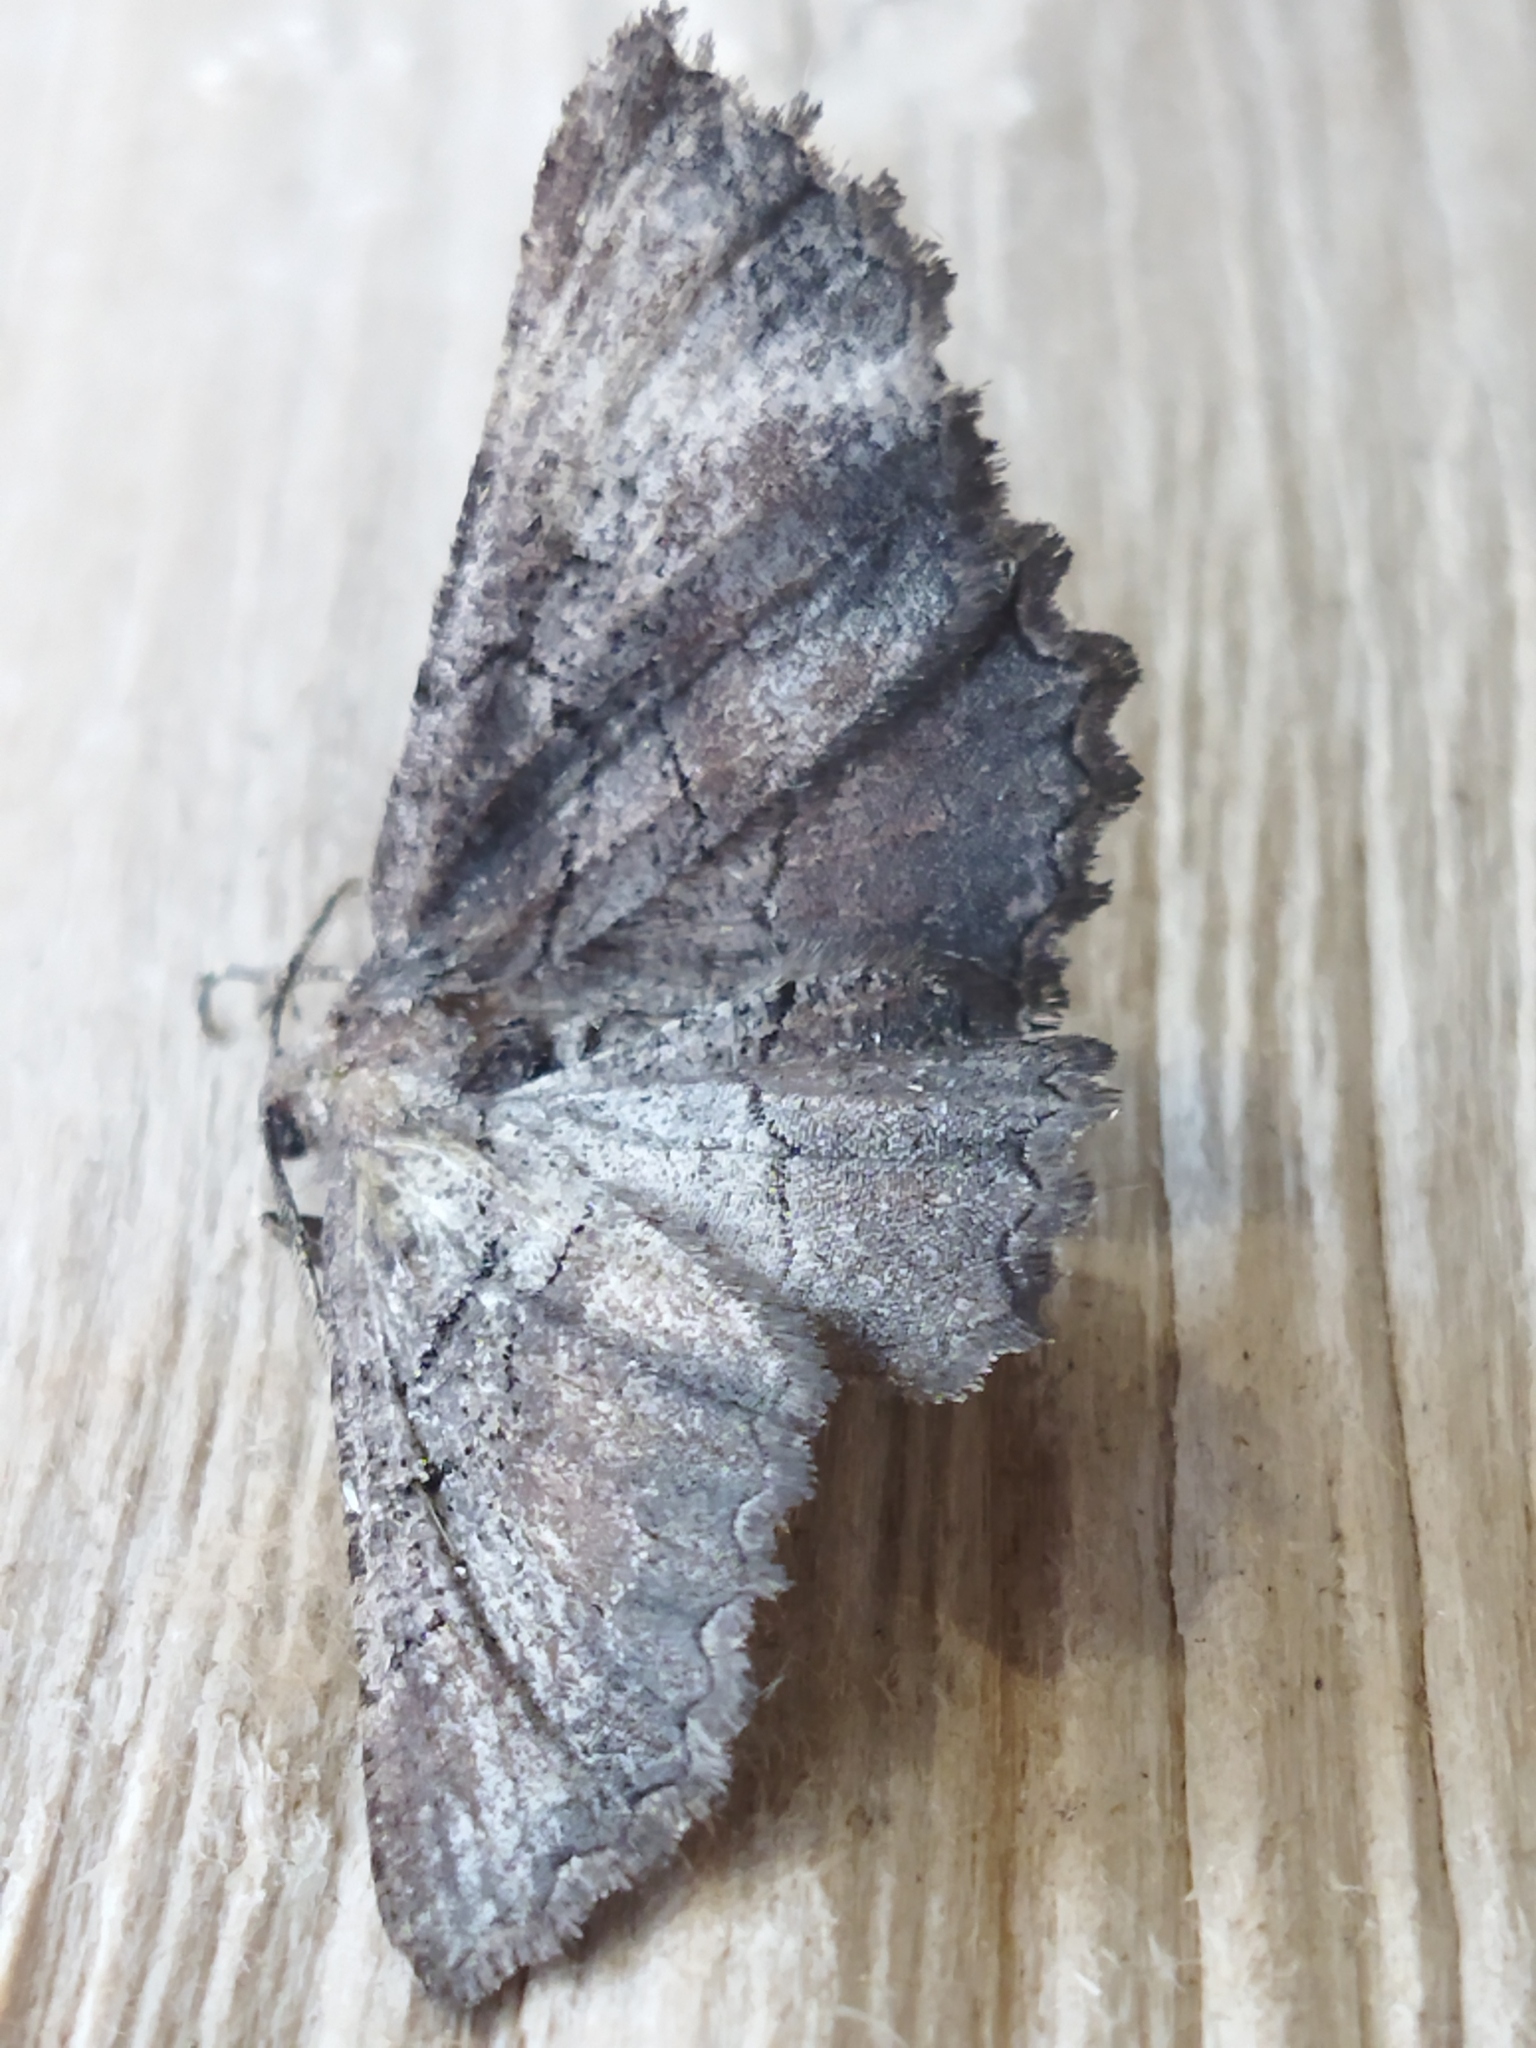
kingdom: Animalia
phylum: Arthropoda
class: Insecta
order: Lepidoptera
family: Geometridae
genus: Nychiodes
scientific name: Nychiodes waltheri
